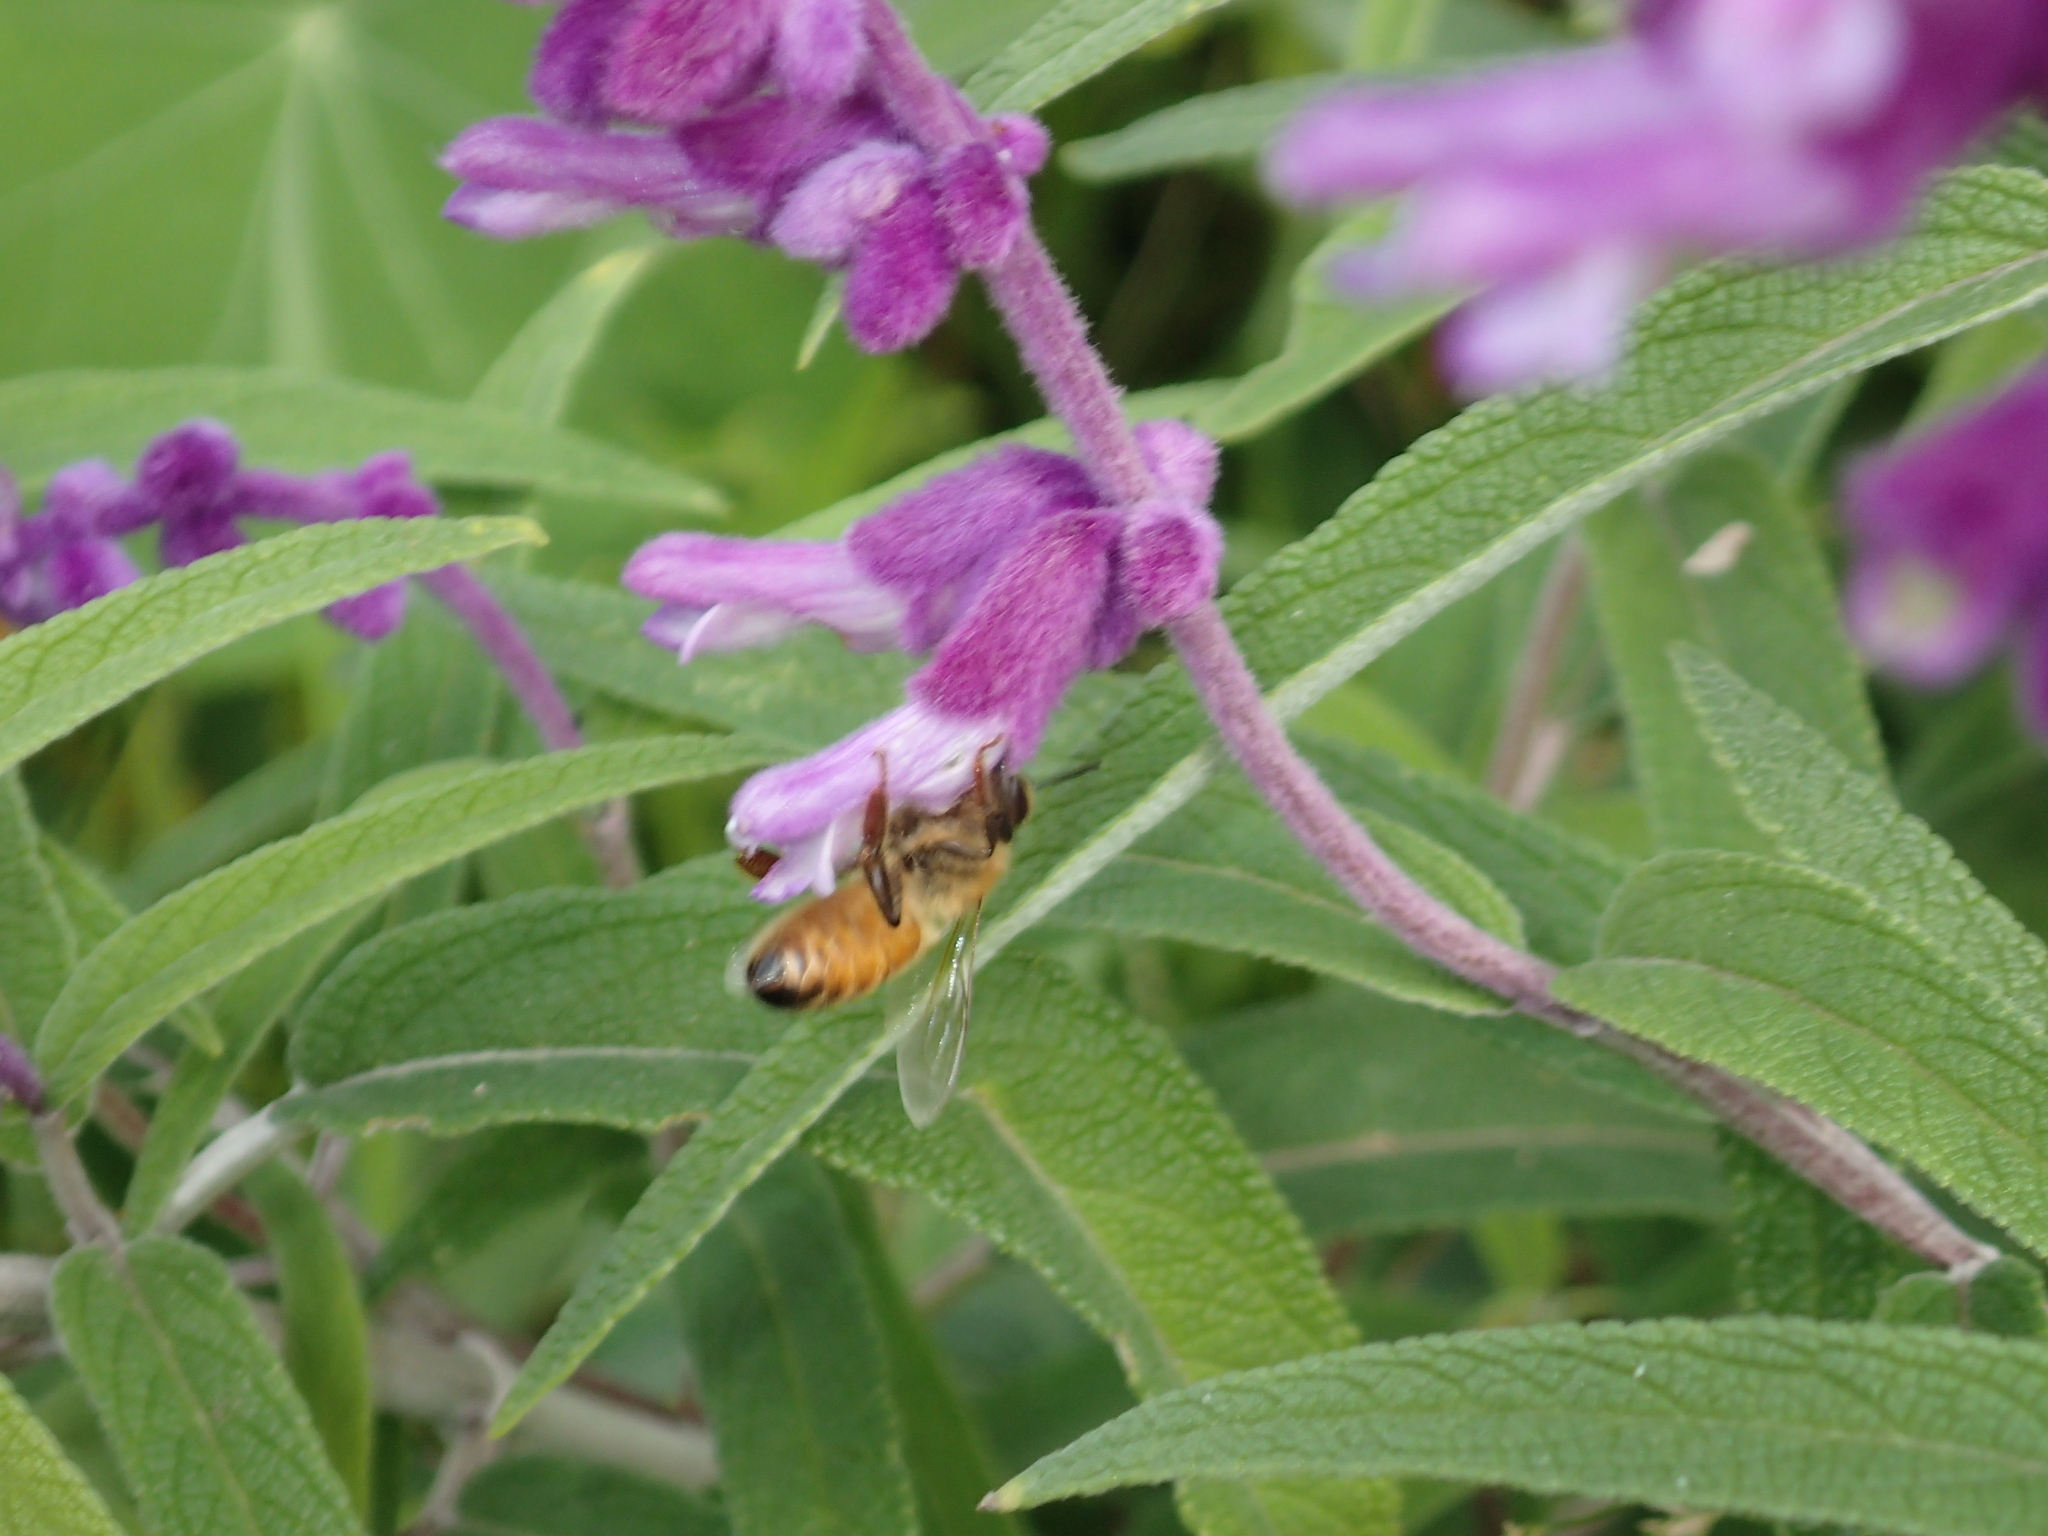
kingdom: Animalia
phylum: Arthropoda
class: Insecta
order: Hymenoptera
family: Apidae
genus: Apis
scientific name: Apis mellifera
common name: Honey bee
